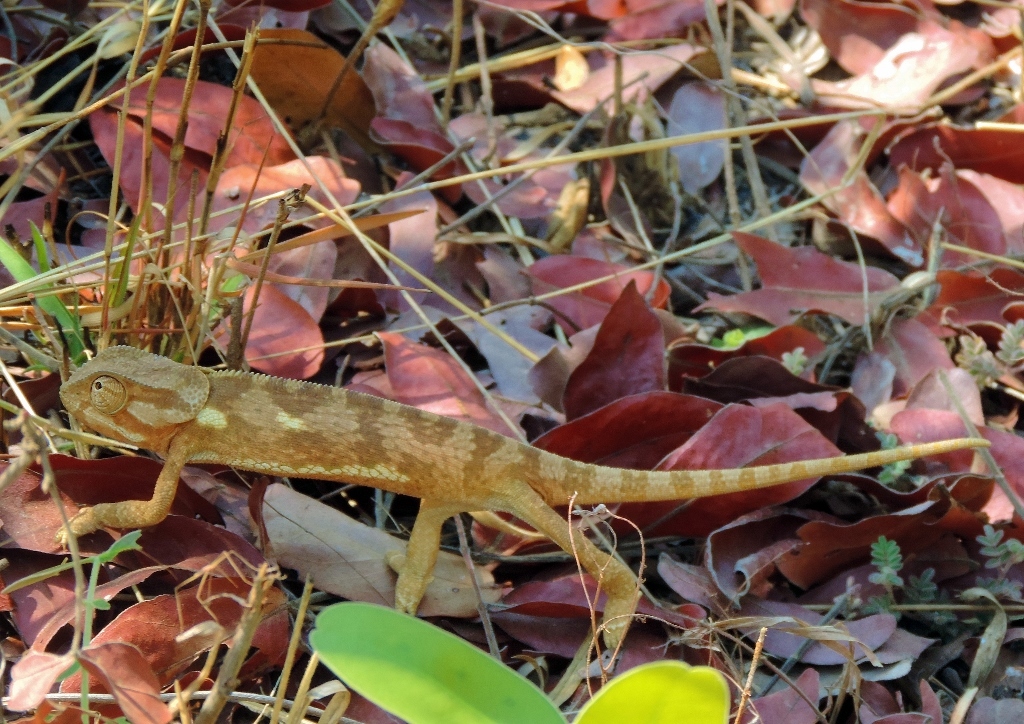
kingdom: Animalia
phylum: Chordata
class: Squamata
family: Chamaeleonidae
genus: Chamaeleo
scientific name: Chamaeleo dilepis
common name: Flapneck chameleon
